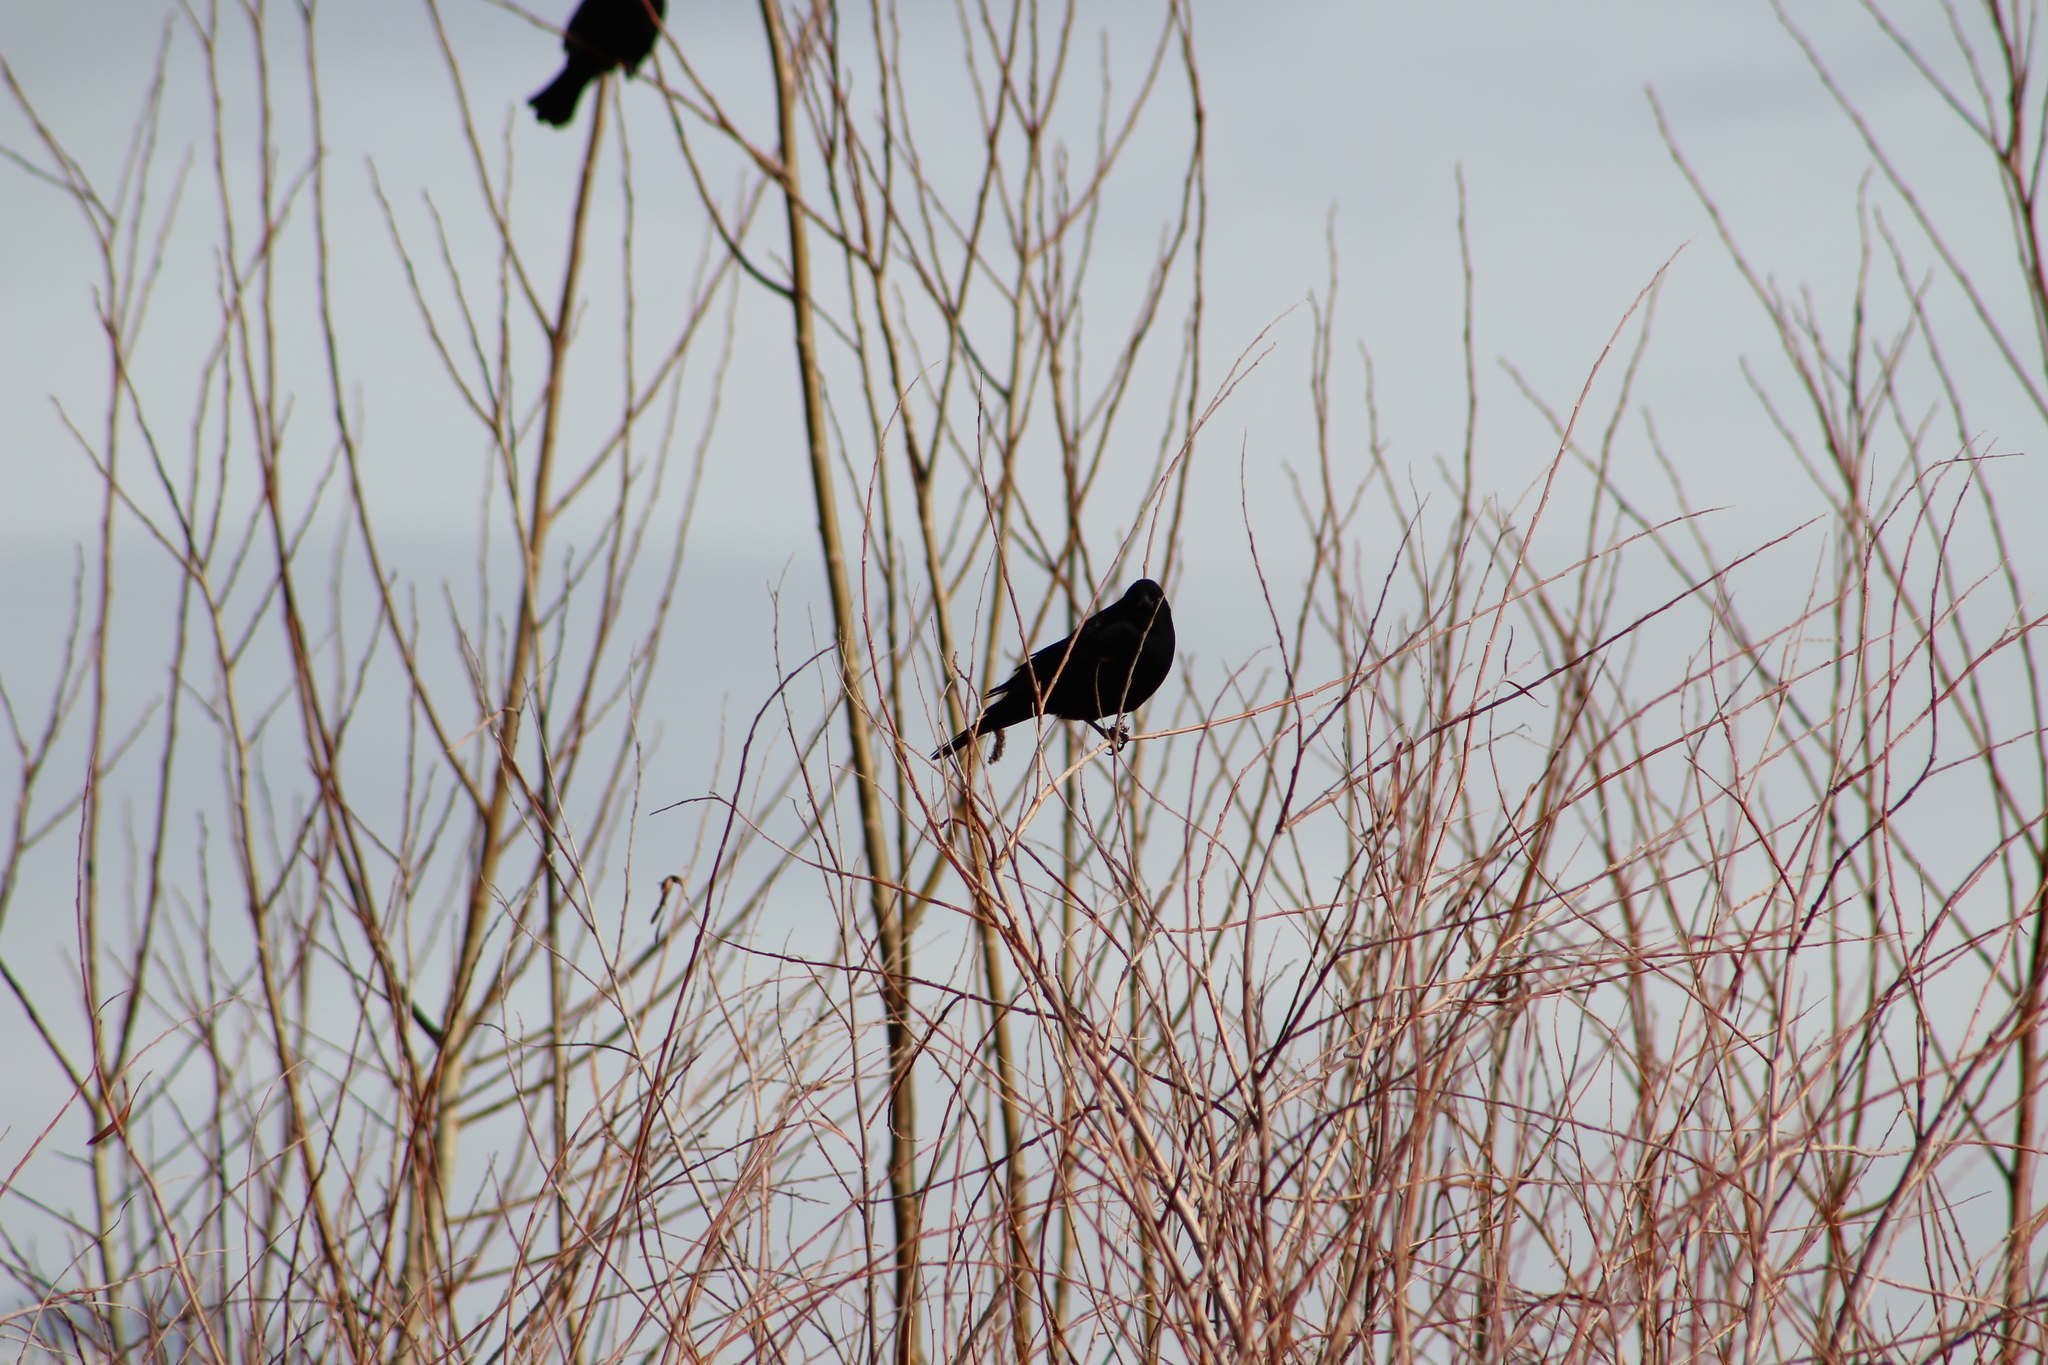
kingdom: Animalia
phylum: Chordata
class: Aves
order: Passeriformes
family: Icteridae
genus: Agelaius
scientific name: Agelaius phoeniceus
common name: Red-winged blackbird
